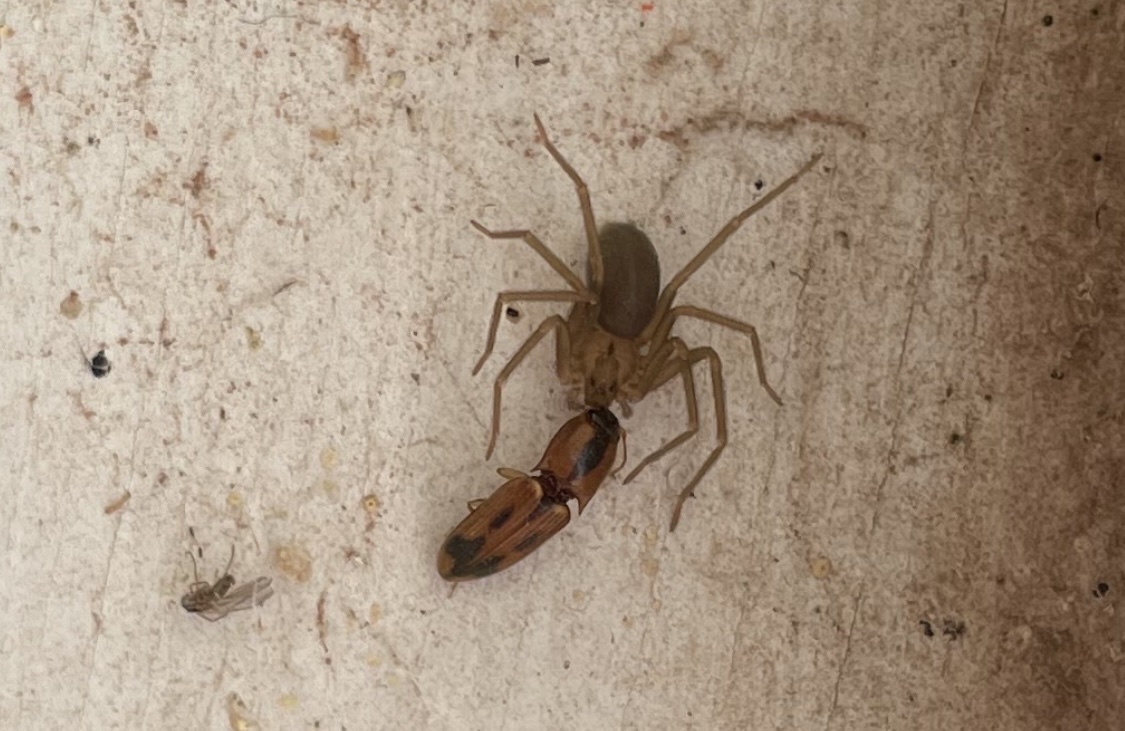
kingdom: Animalia
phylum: Arthropoda
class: Arachnida
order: Araneae
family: Sicariidae
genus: Loxosceles
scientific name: Loxosceles reclusa
